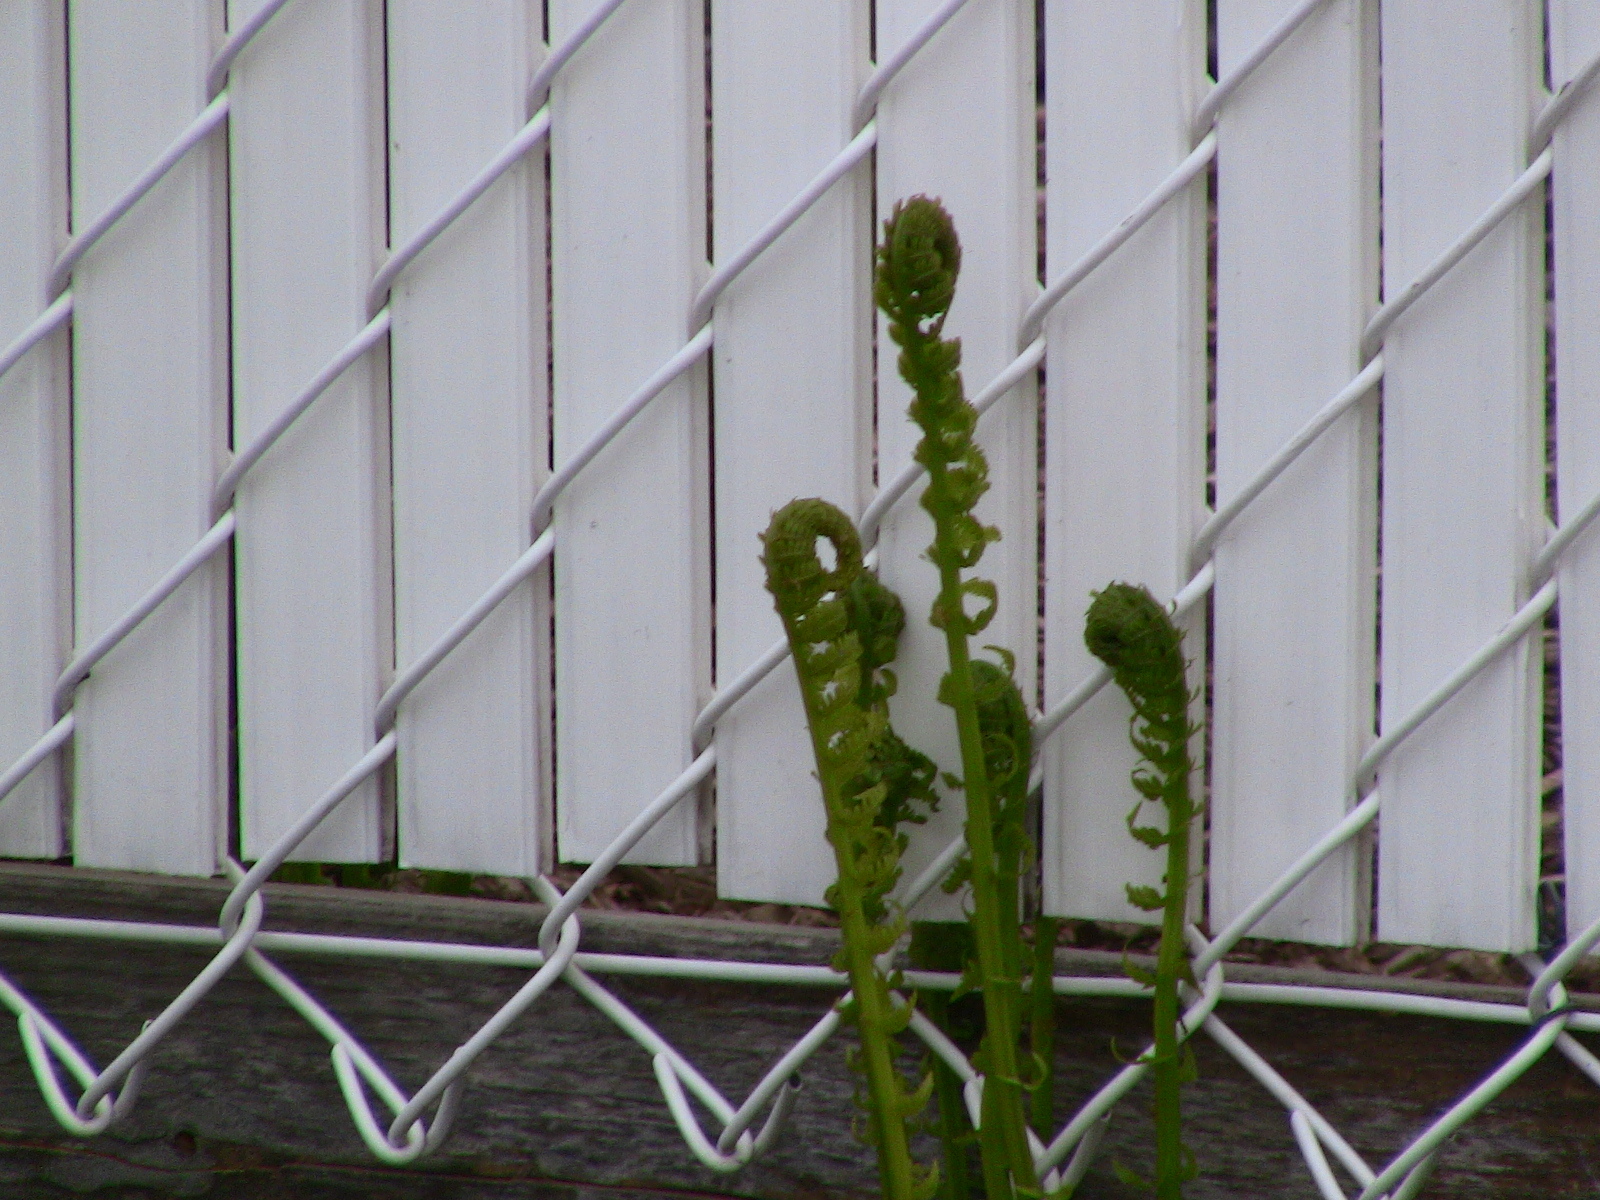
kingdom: Plantae
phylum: Tracheophyta
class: Polypodiopsida
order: Polypodiales
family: Onocleaceae
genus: Matteuccia
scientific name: Matteuccia struthiopteris
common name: Ostrich fern
